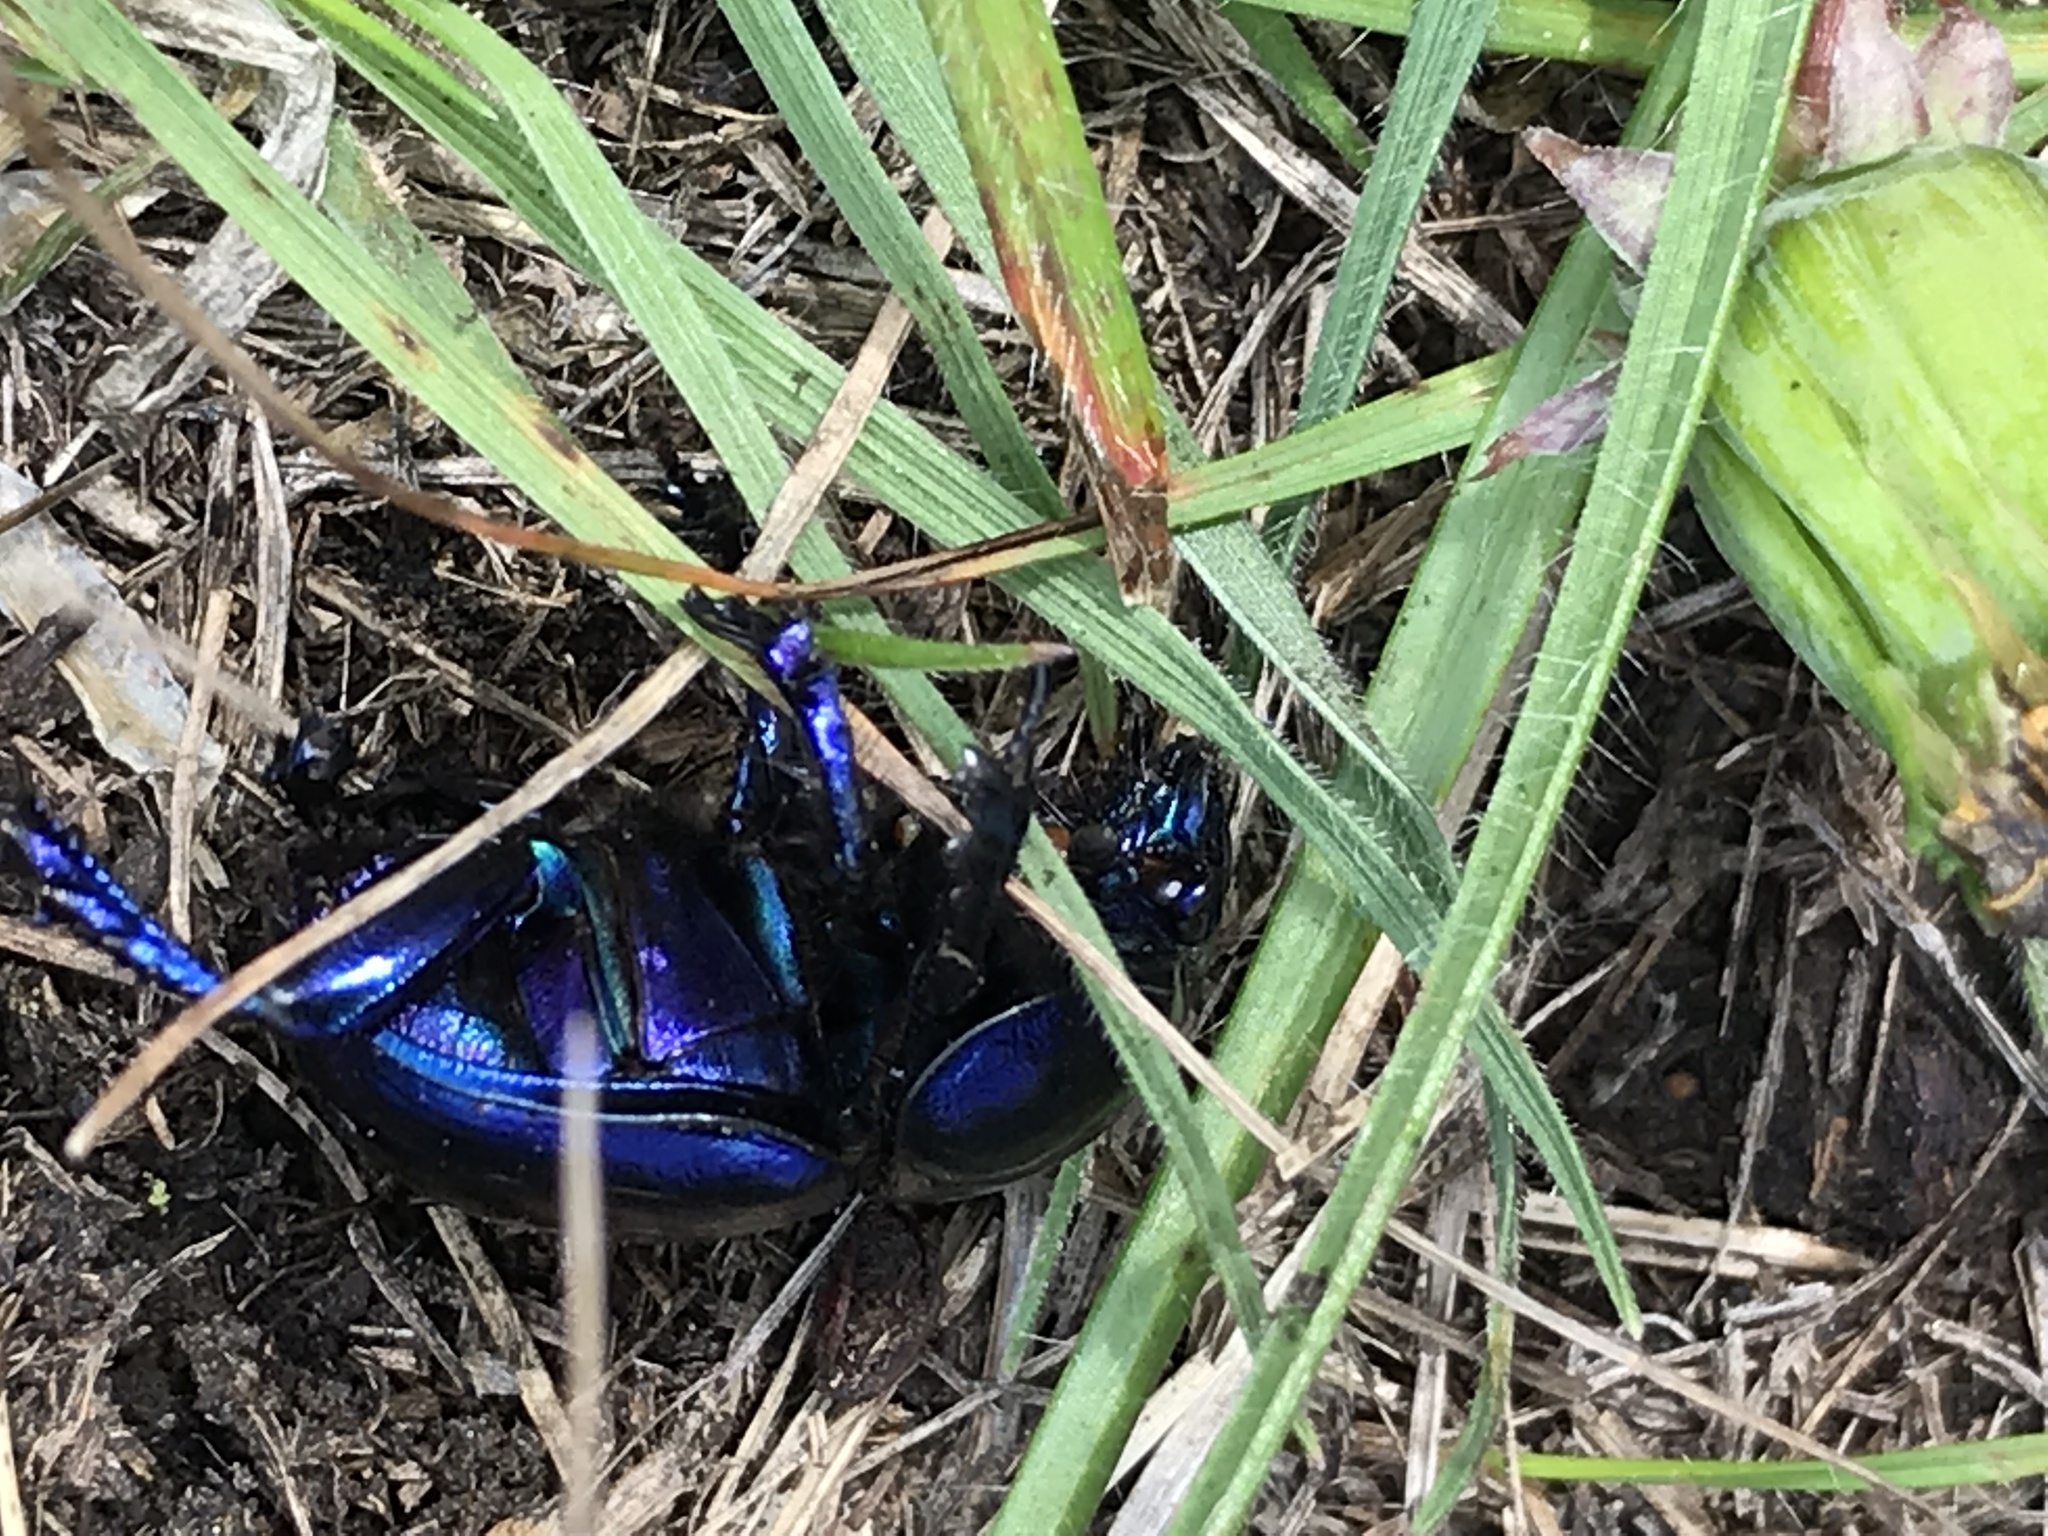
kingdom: Animalia
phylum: Arthropoda
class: Insecta
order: Coleoptera
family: Geotrupidae
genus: Trypocopris
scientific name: Trypocopris vernalis
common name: Spring dumbledor
